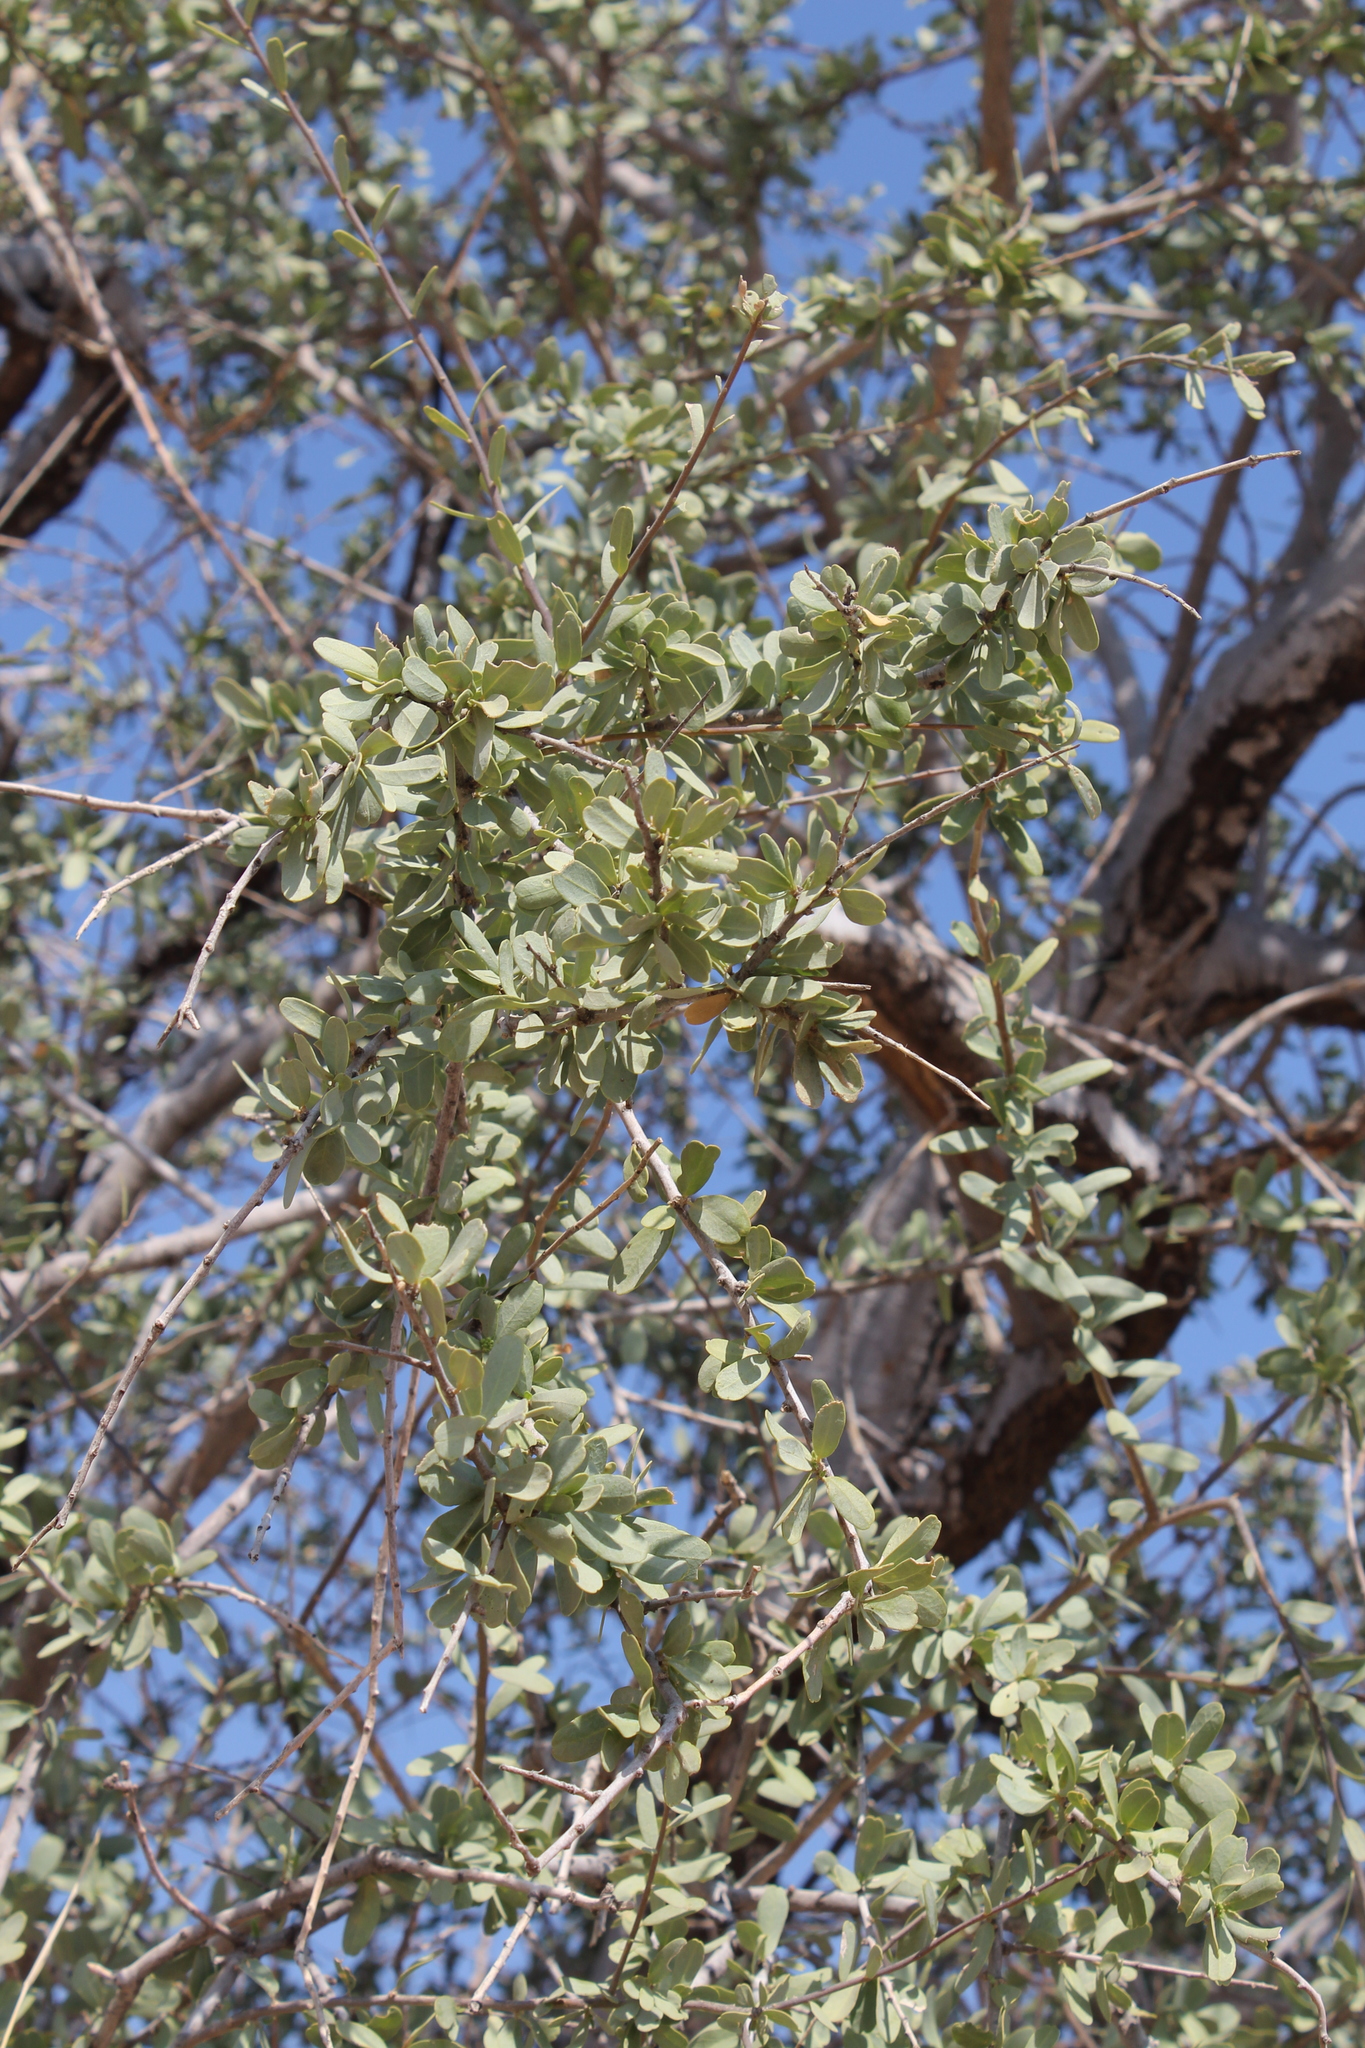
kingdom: Plantae
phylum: Tracheophyta
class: Magnoliopsida
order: Brassicales
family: Capparaceae
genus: Boscia
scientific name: Boscia albitrunca
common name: Caper bush
